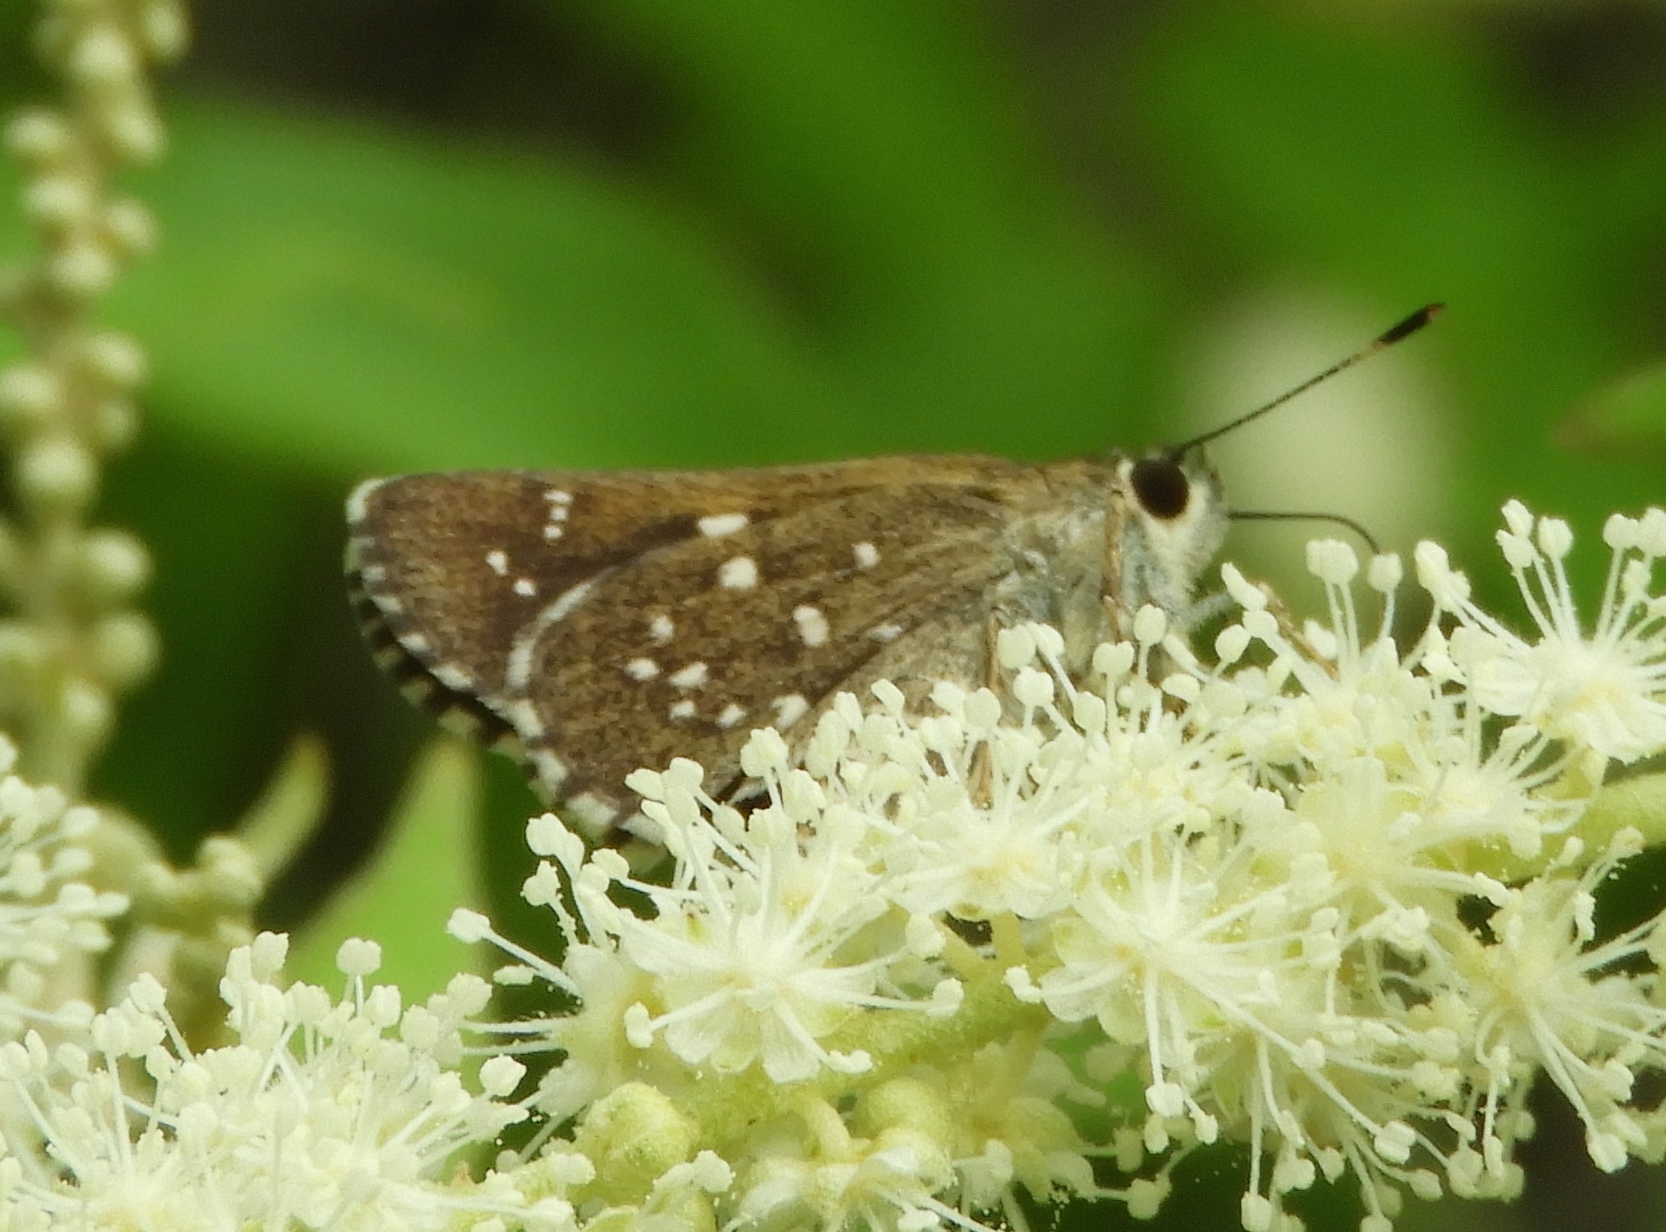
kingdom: Animalia
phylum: Arthropoda
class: Insecta
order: Lepidoptera
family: Hesperiidae
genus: Mastor
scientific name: Mastor tolteca
